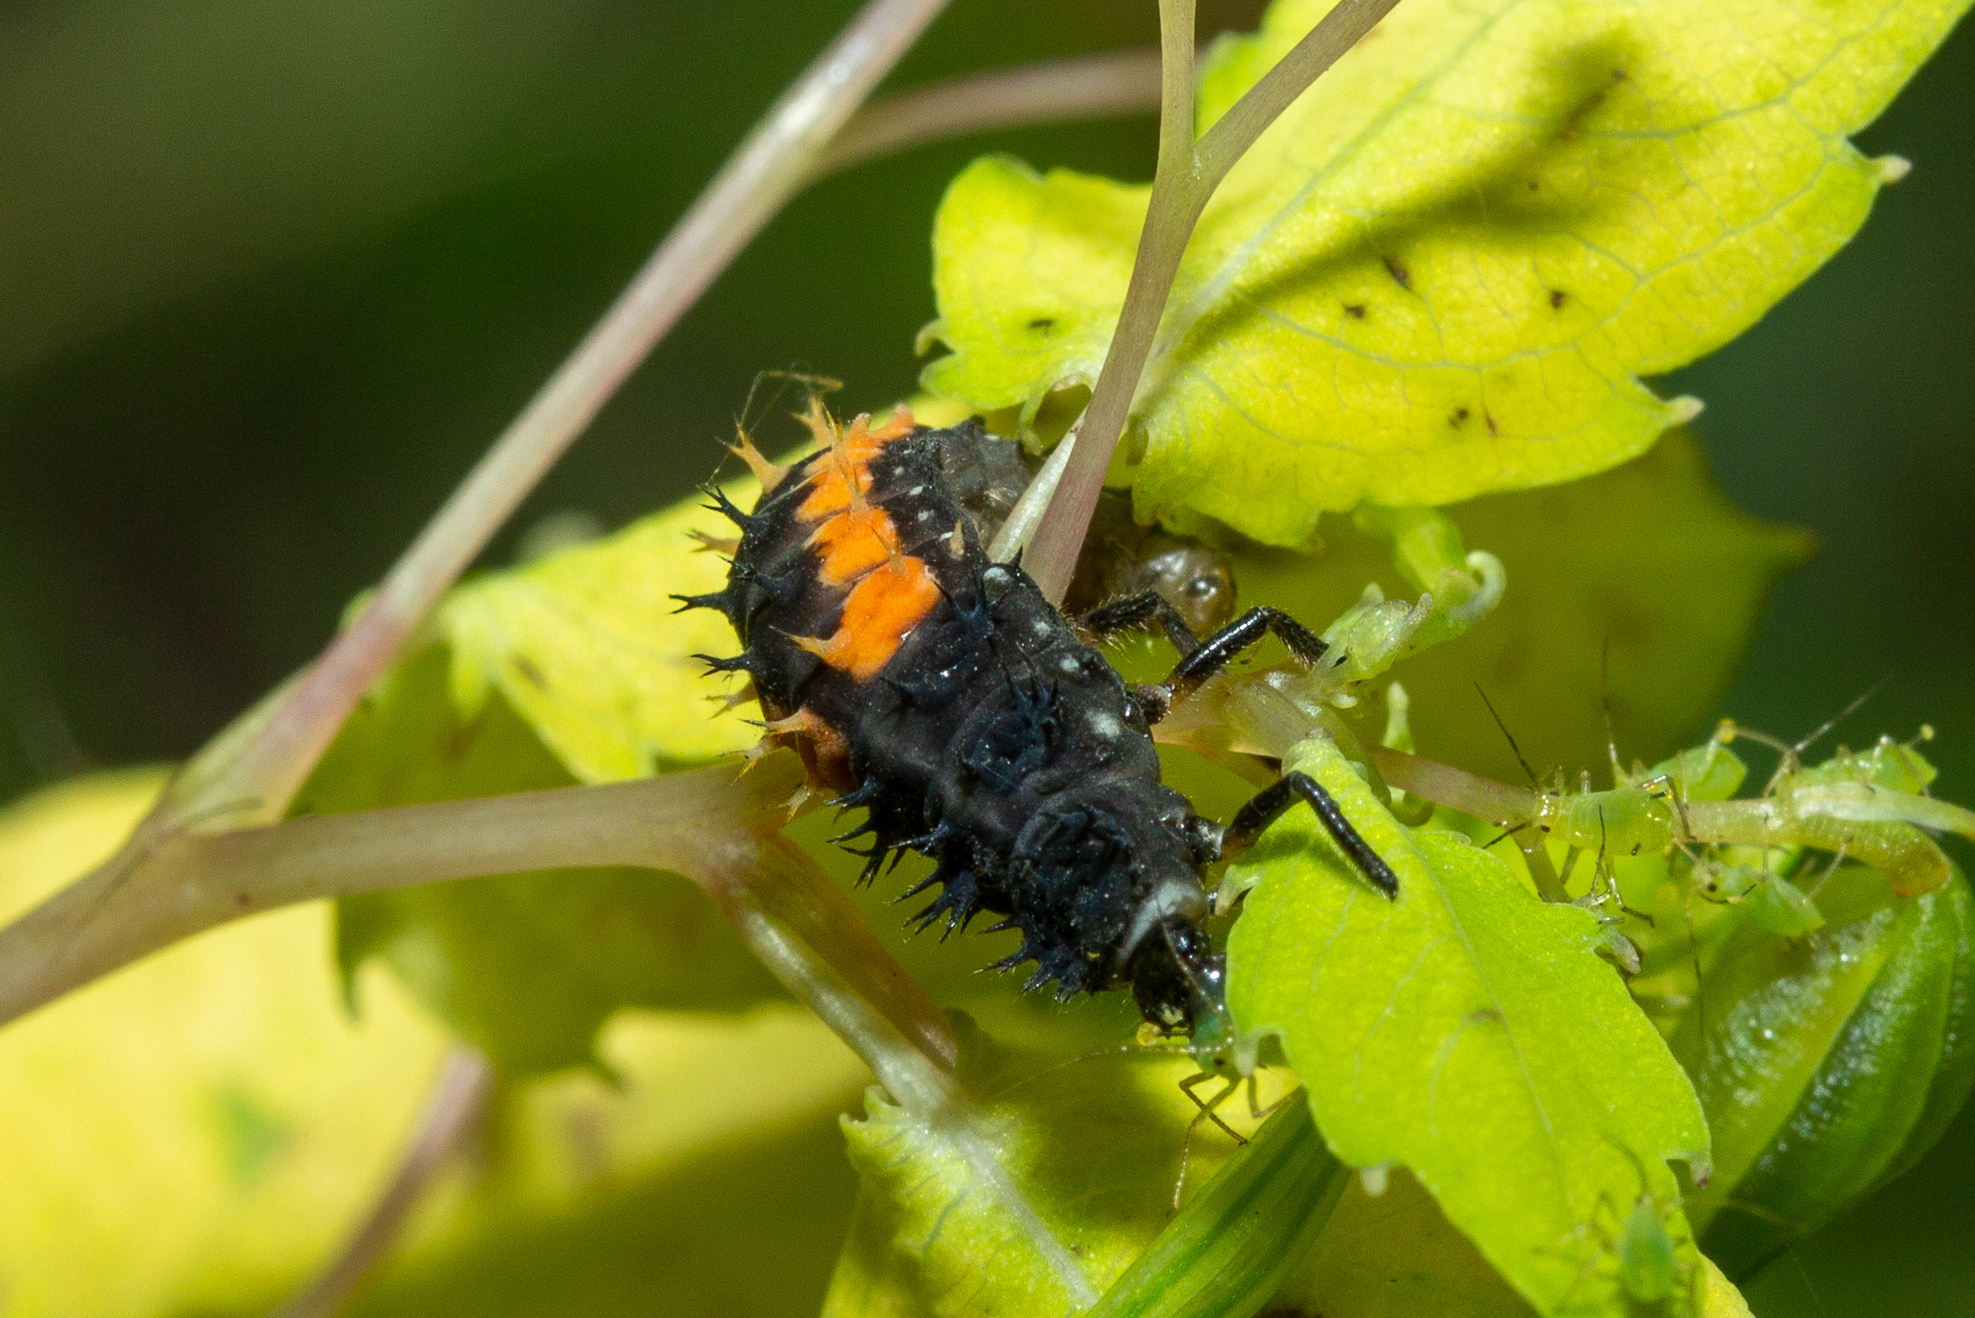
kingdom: Animalia
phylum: Arthropoda
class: Insecta
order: Coleoptera
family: Coccinellidae
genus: Harmonia
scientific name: Harmonia axyridis
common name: Harlequin ladybird
